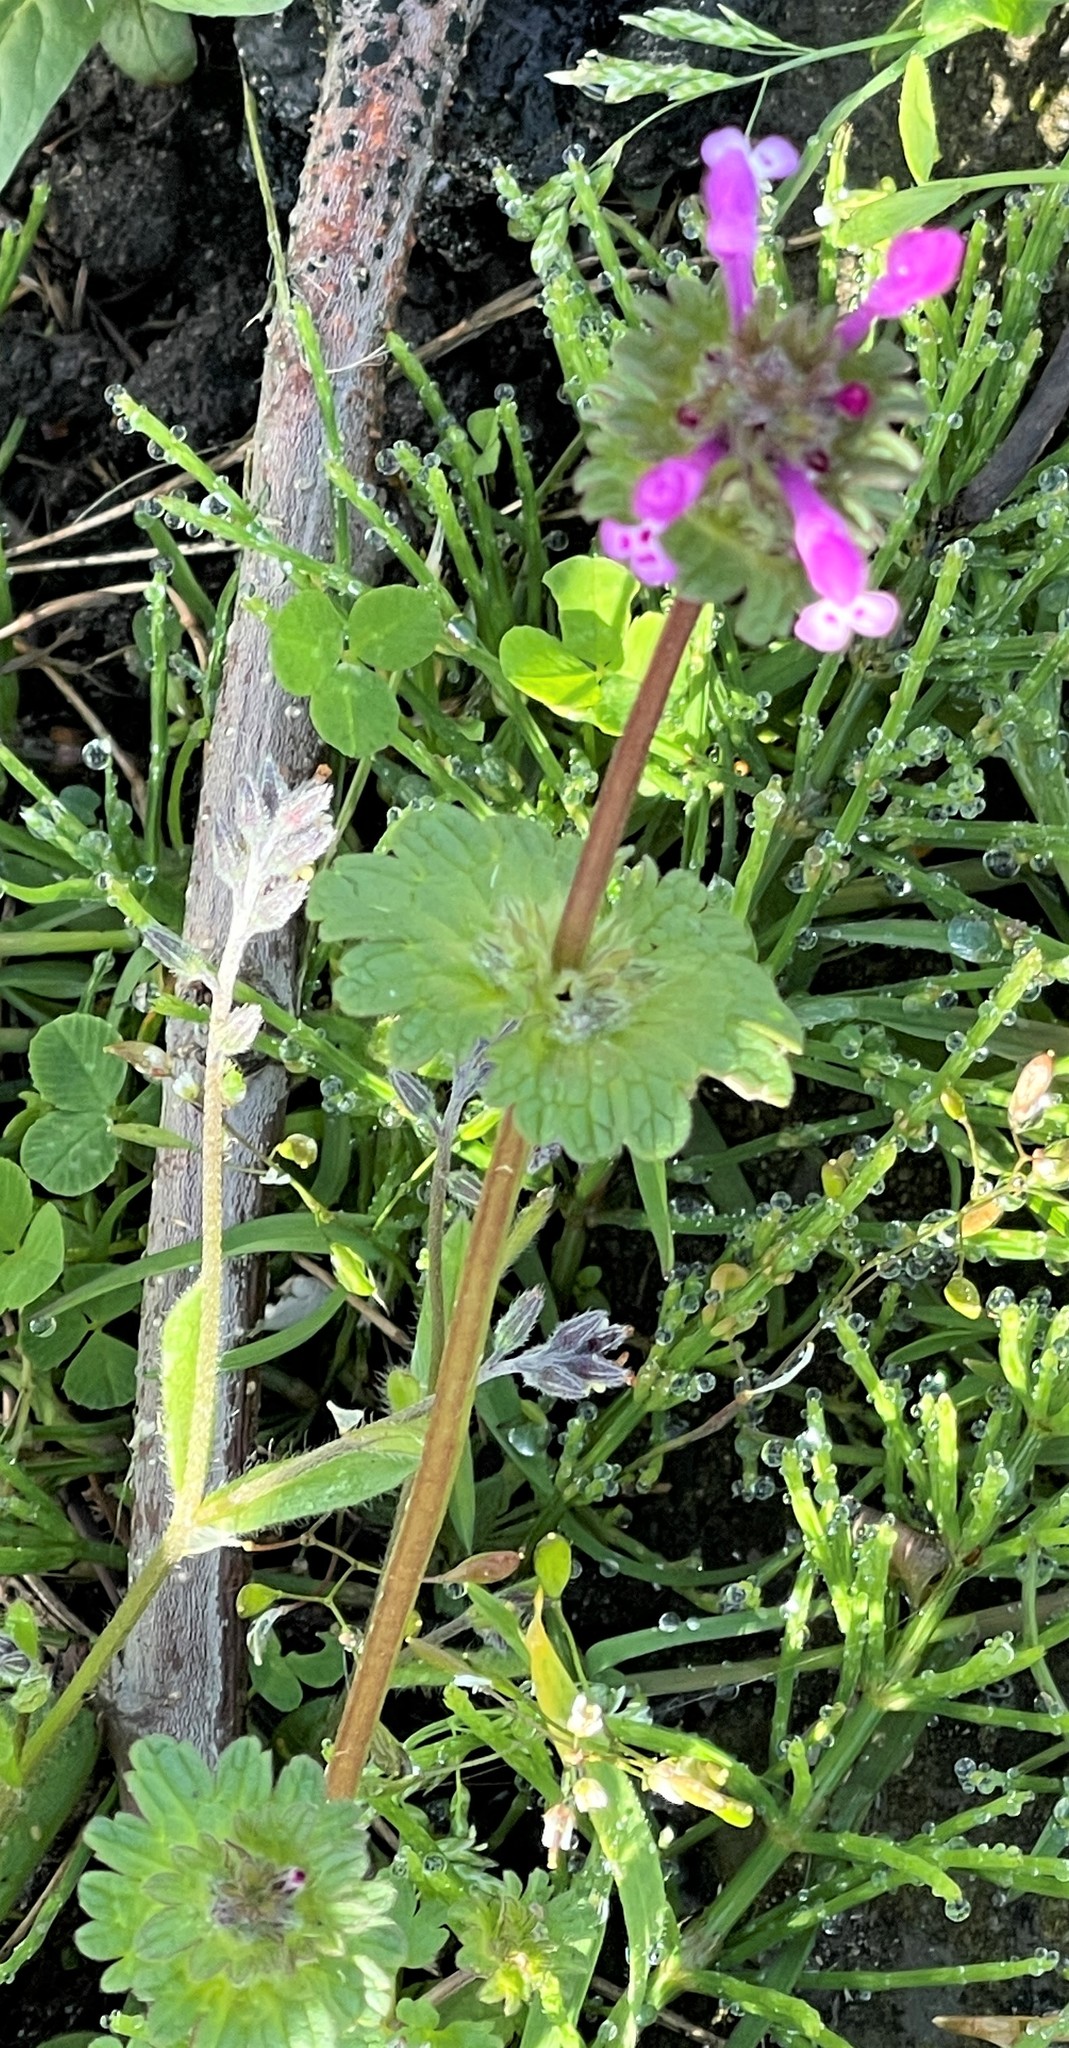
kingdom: Plantae
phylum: Tracheophyta
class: Magnoliopsida
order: Lamiales
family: Lamiaceae
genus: Lamium
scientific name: Lamium amplexicaule
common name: Henbit dead-nettle
